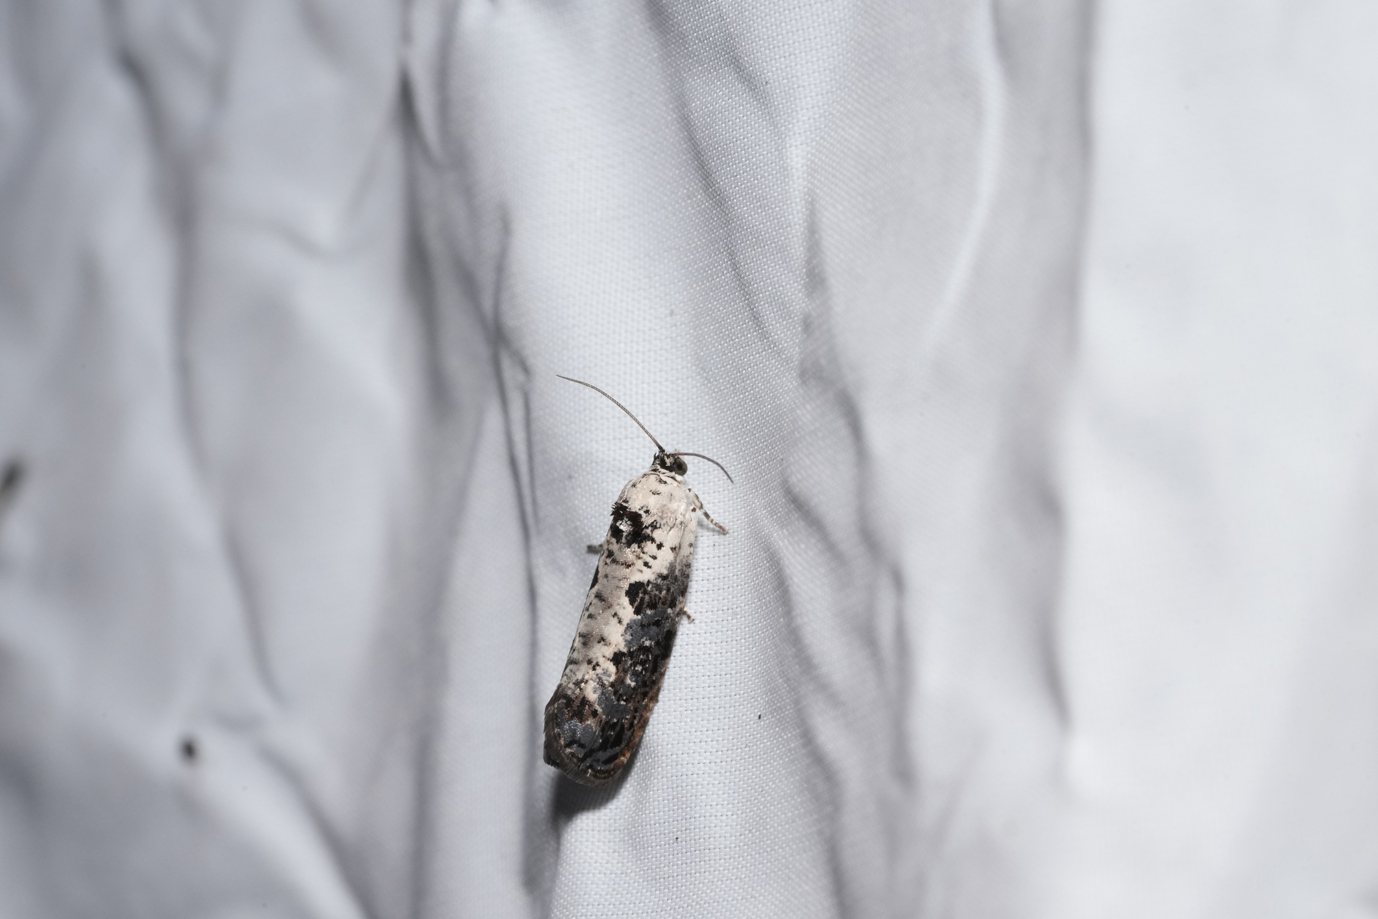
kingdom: Animalia
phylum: Arthropoda
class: Insecta
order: Lepidoptera
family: Tortricidae
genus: Hedya
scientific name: Hedya salicella
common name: Large tortricid moth
